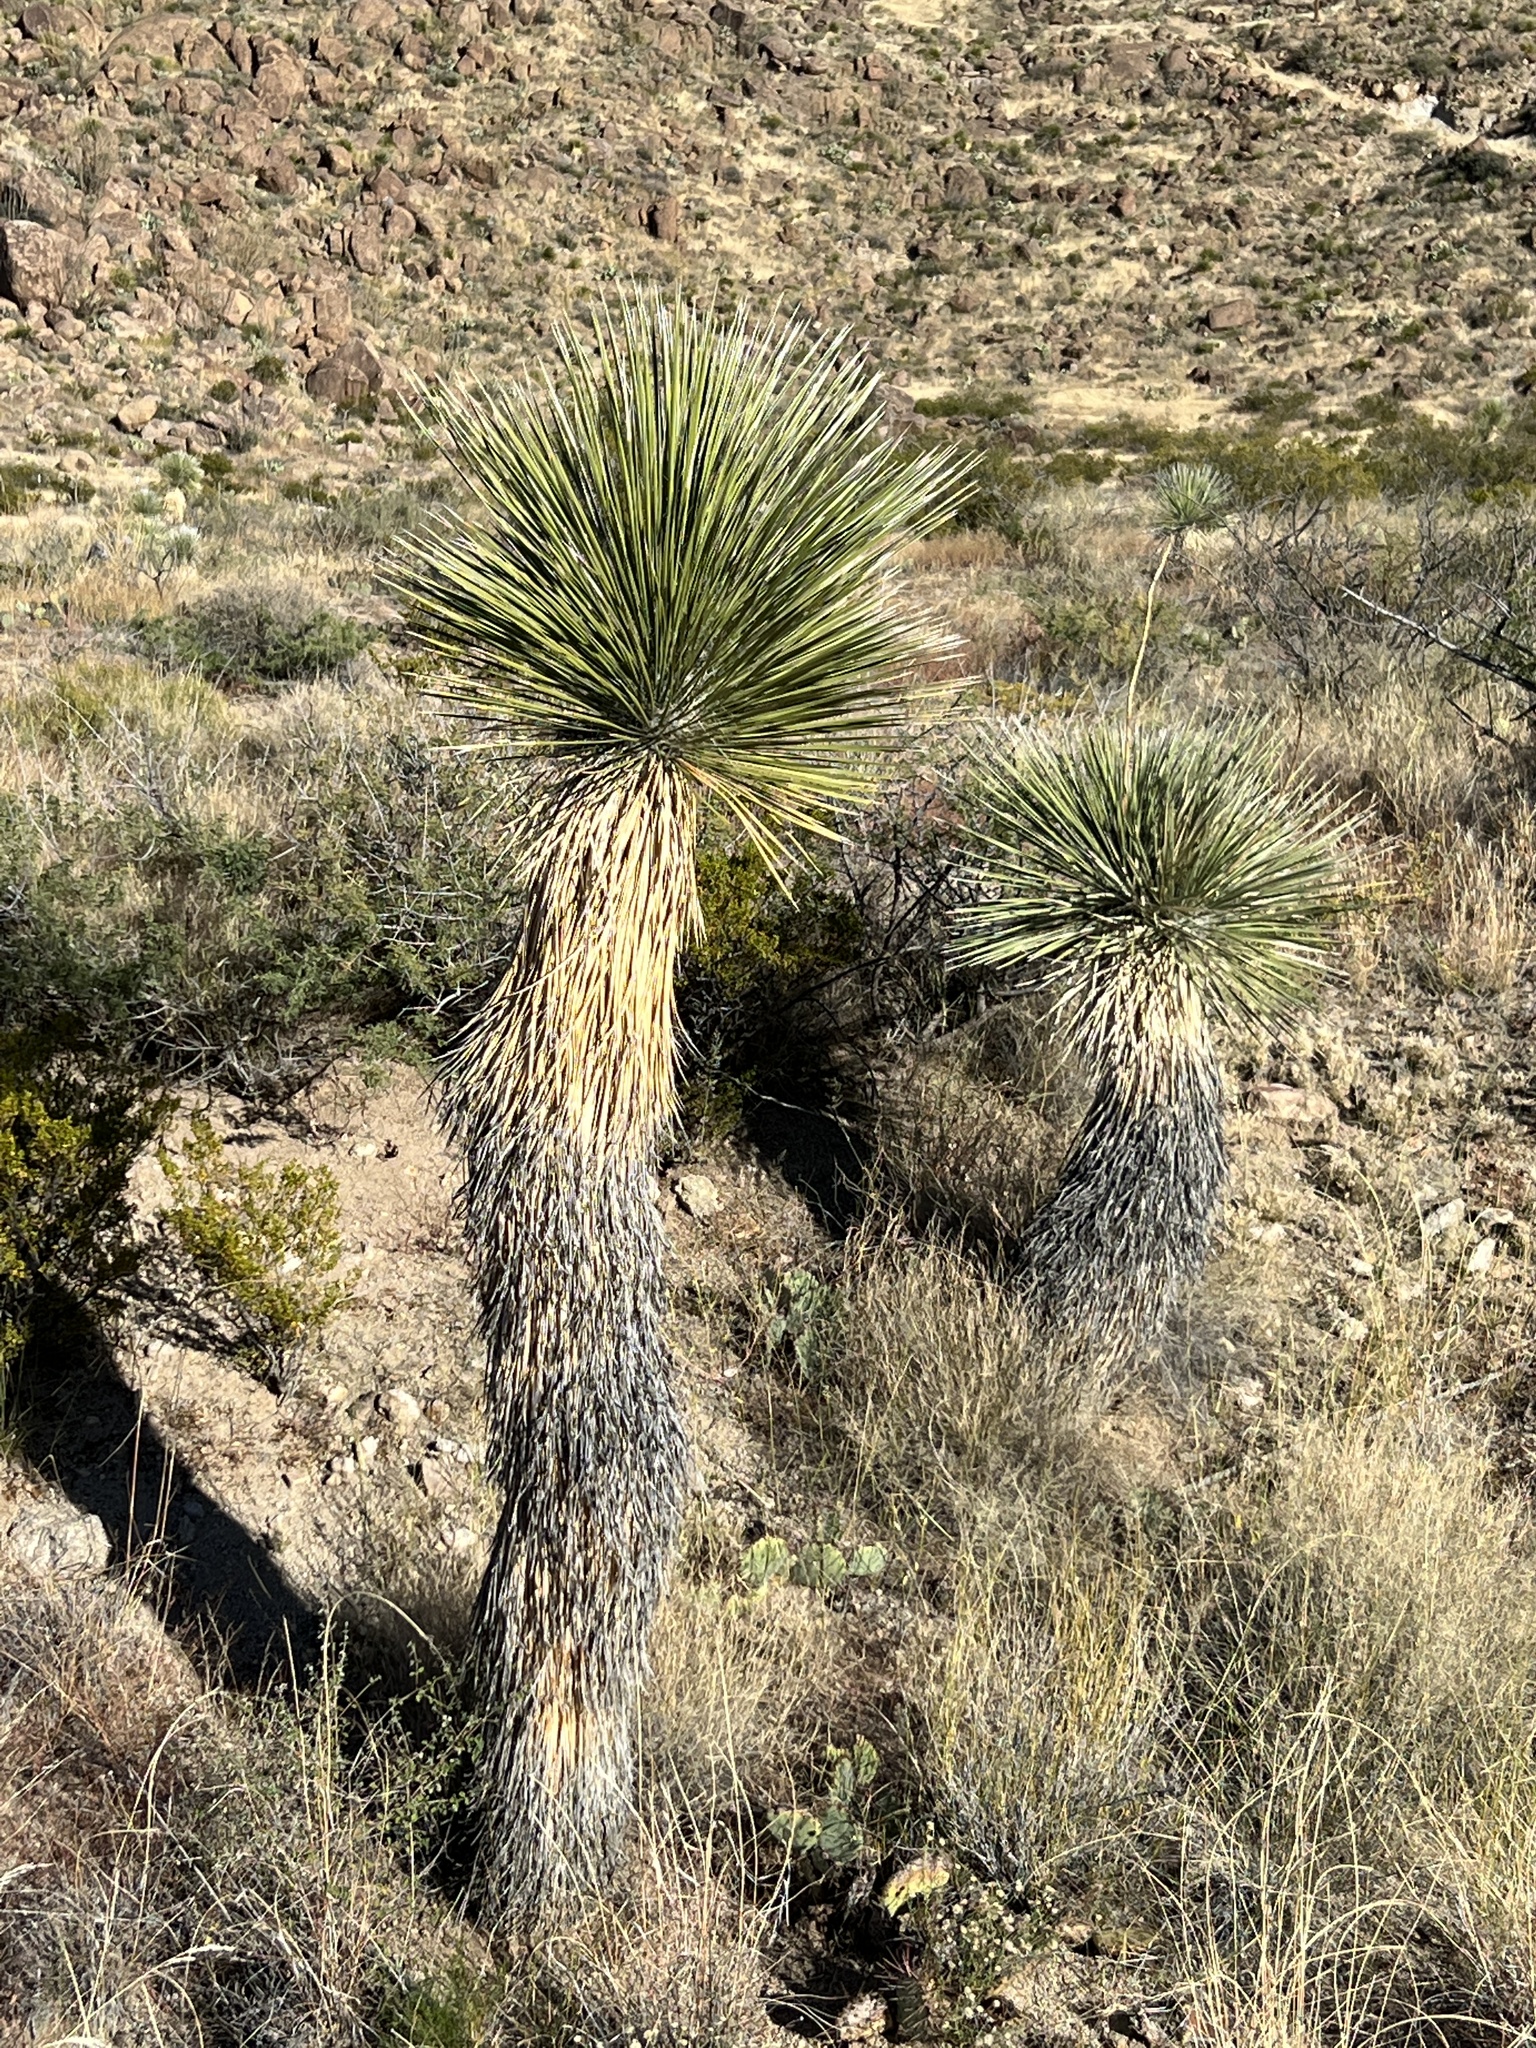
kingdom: Plantae
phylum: Tracheophyta
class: Liliopsida
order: Asparagales
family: Asparagaceae
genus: Yucca
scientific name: Yucca elata
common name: Palmella
